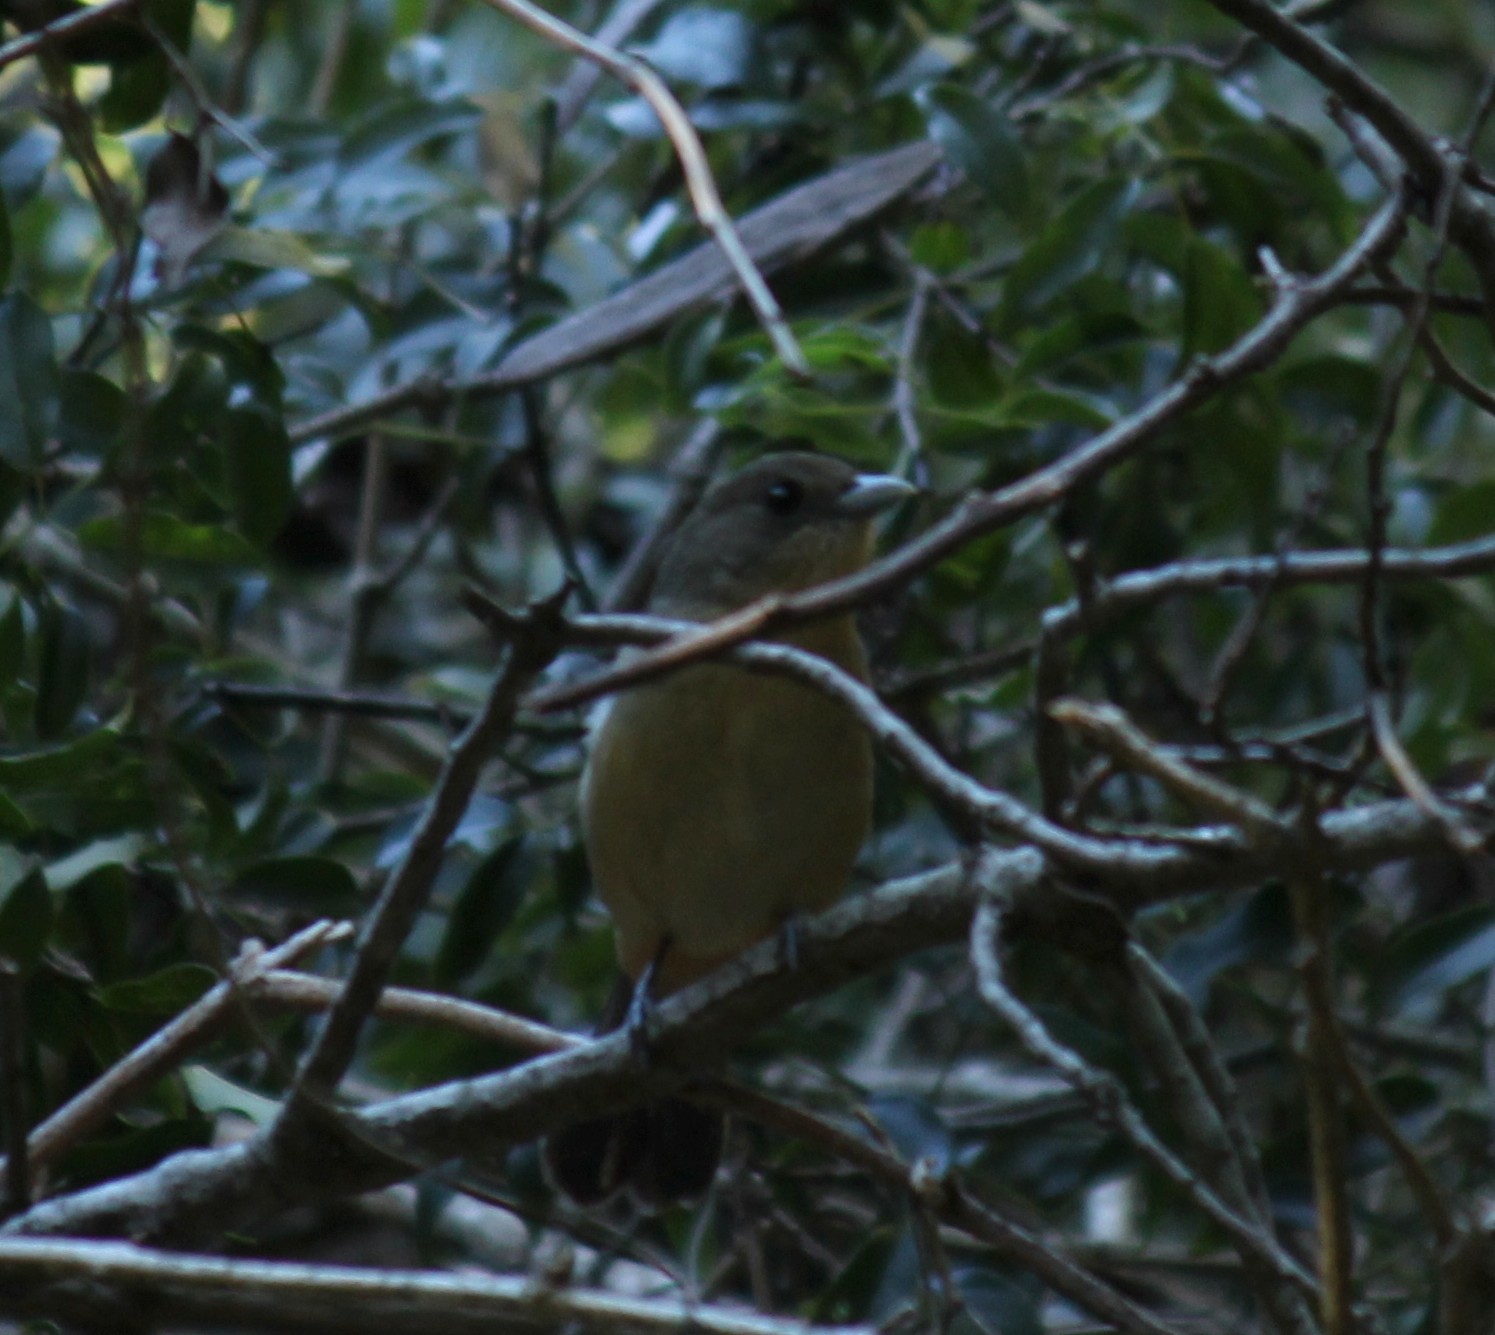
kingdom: Animalia
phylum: Chordata
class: Aves
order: Passeriformes
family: Thraupidae
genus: Trichothraupis
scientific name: Trichothraupis melanops
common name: Black-goggled tanager
